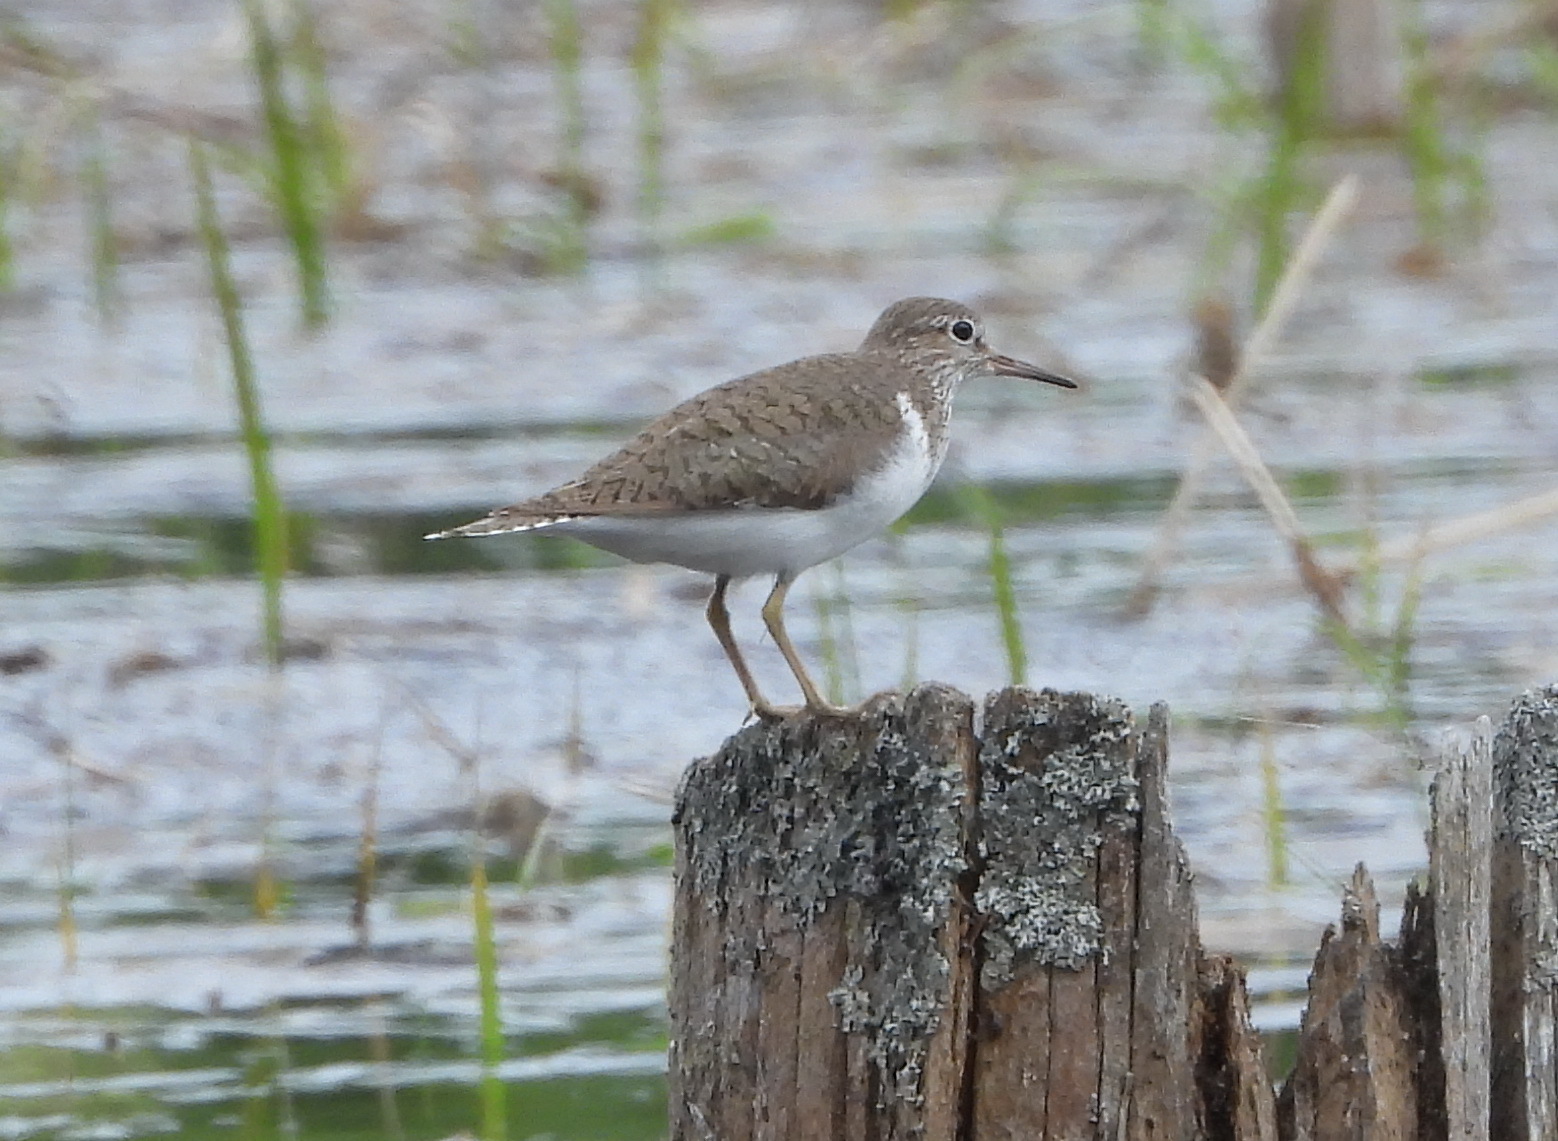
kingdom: Animalia
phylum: Chordata
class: Aves
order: Charadriiformes
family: Scolopacidae
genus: Actitis
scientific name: Actitis hypoleucos
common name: Common sandpiper
